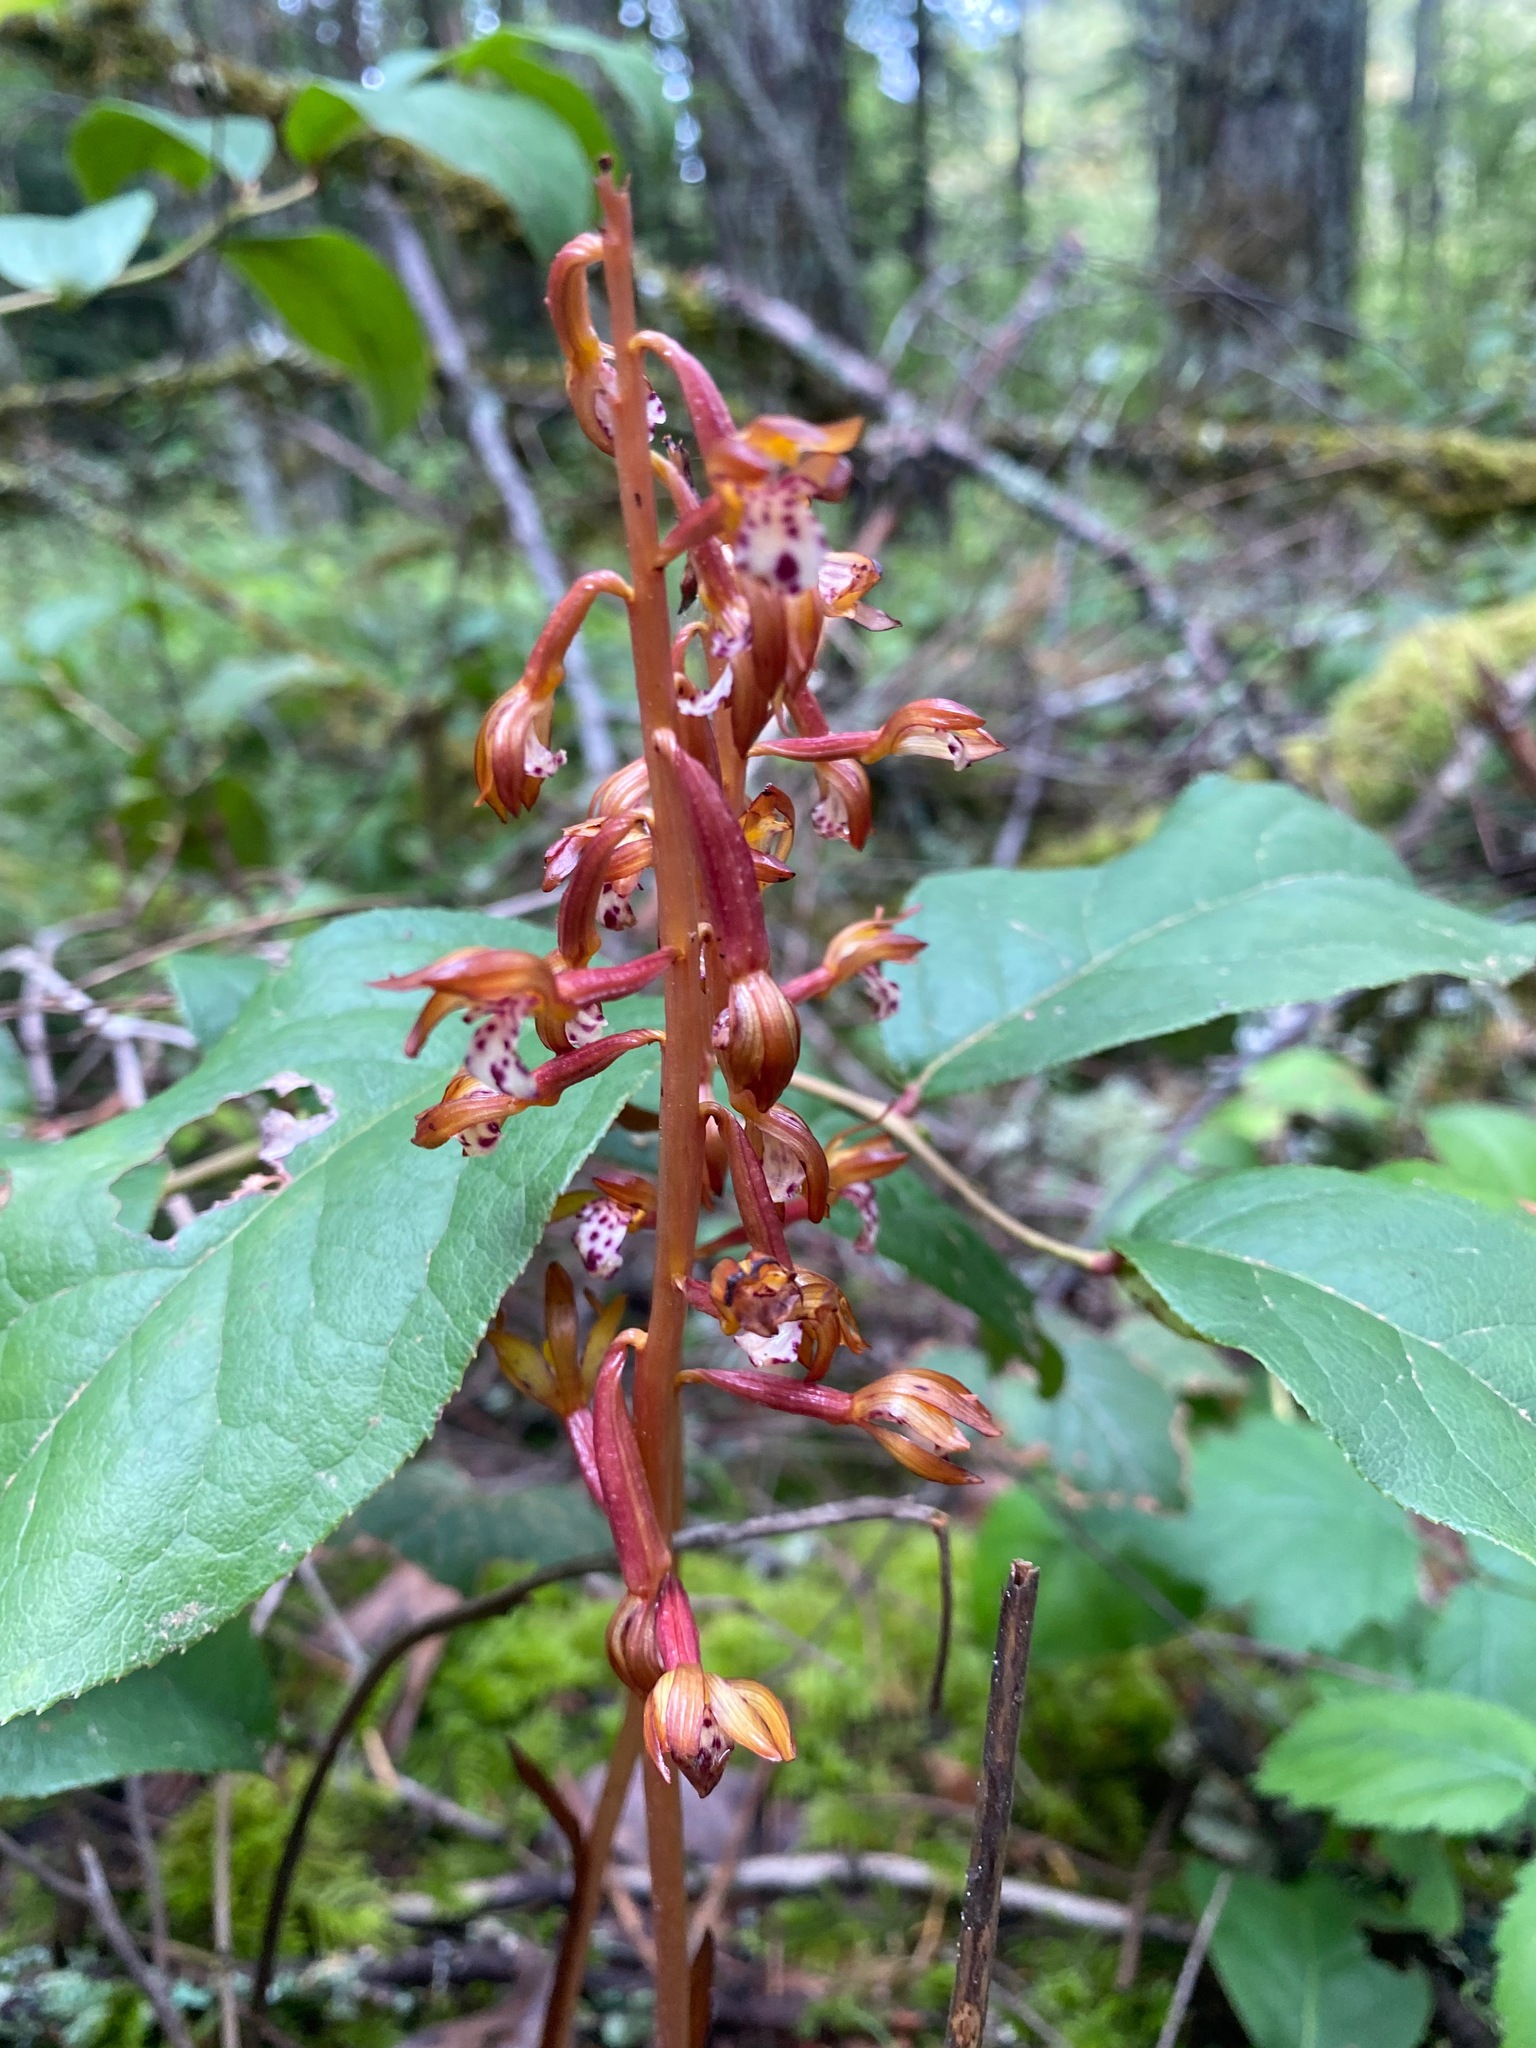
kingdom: Plantae
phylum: Tracheophyta
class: Liliopsida
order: Asparagales
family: Orchidaceae
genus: Corallorhiza
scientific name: Corallorhiza maculata
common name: Spotted coralroot
